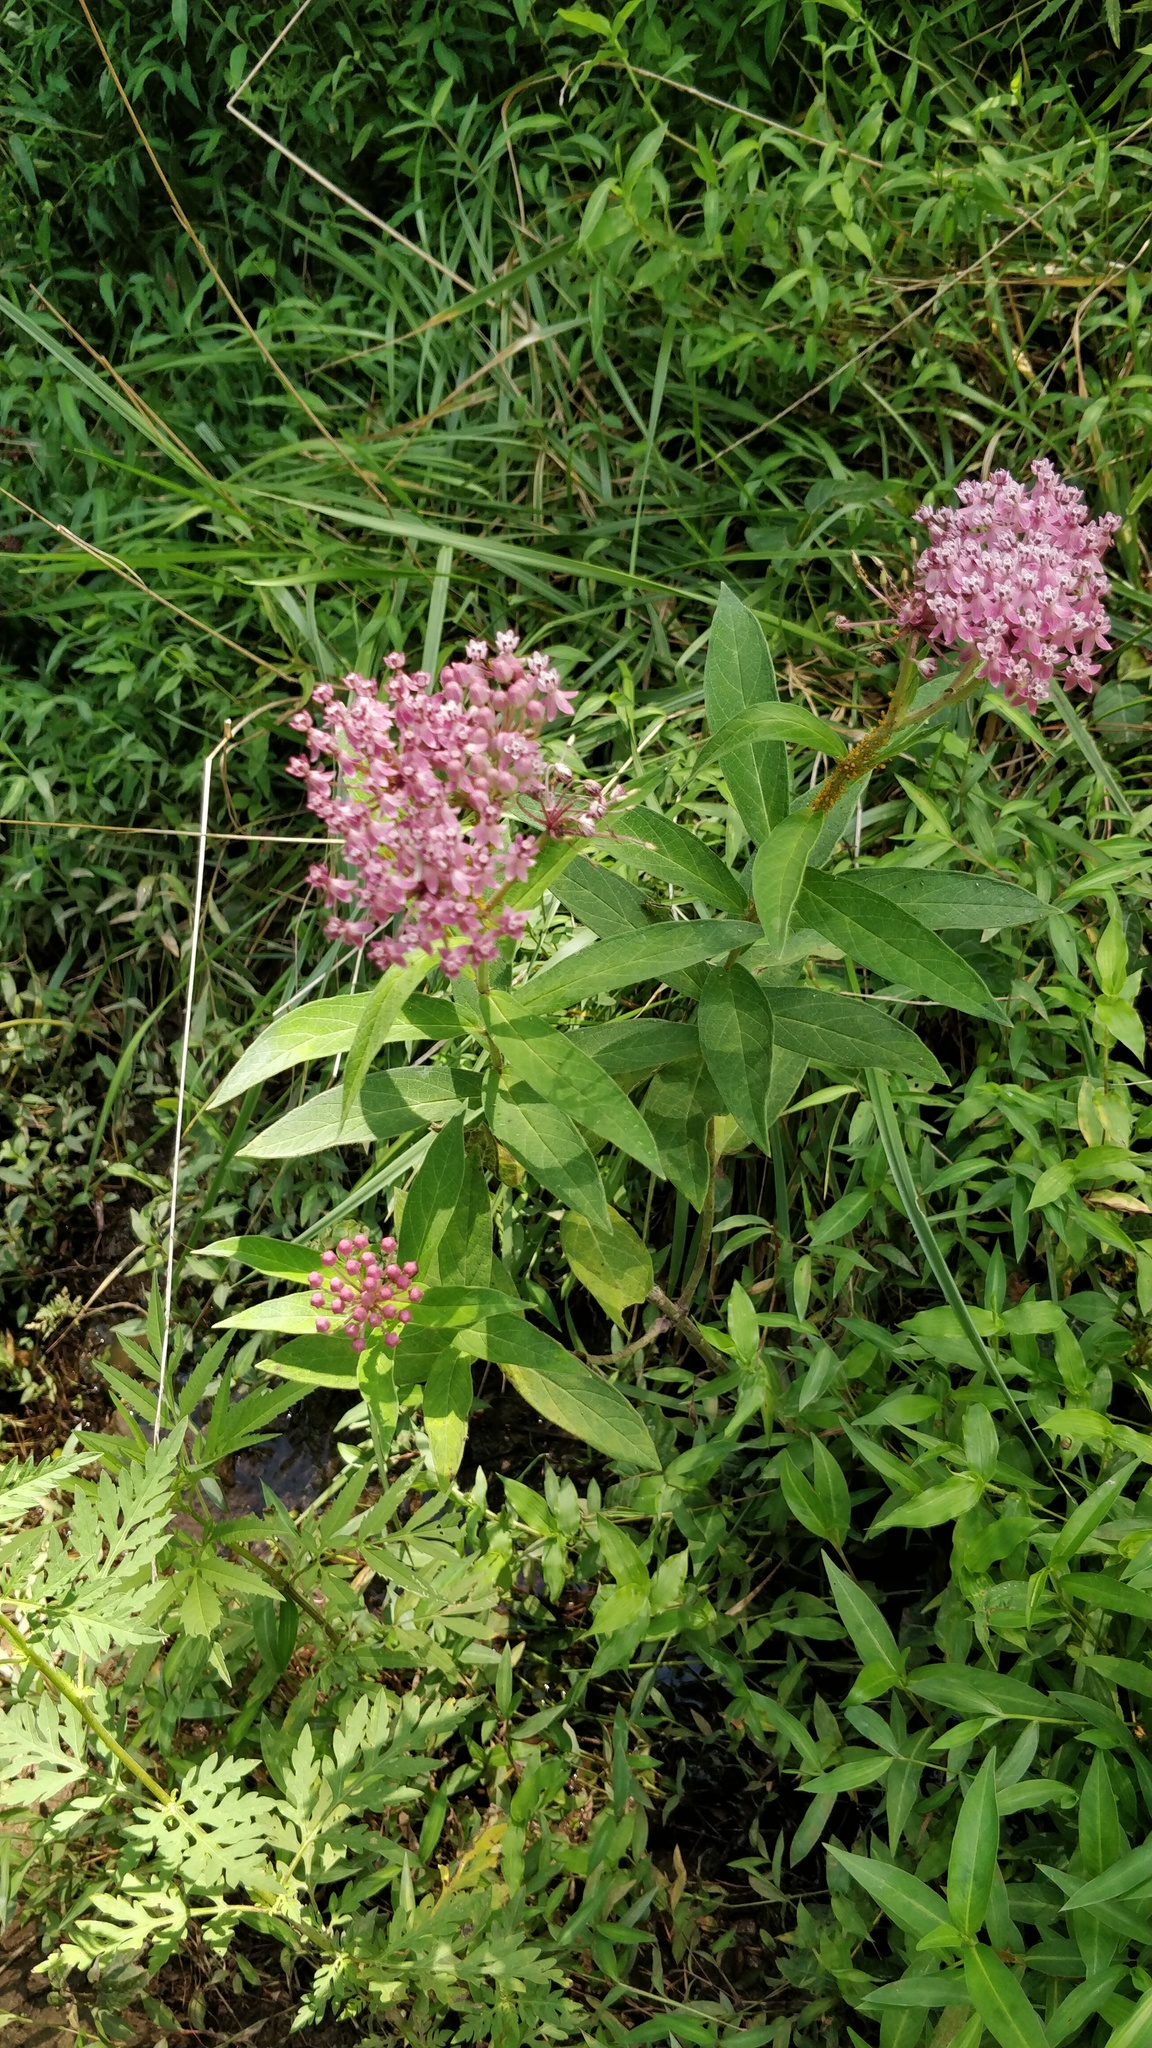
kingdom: Plantae
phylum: Tracheophyta
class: Magnoliopsida
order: Gentianales
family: Apocynaceae
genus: Asclepias
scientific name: Asclepias incarnata
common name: Swamp milkweed
